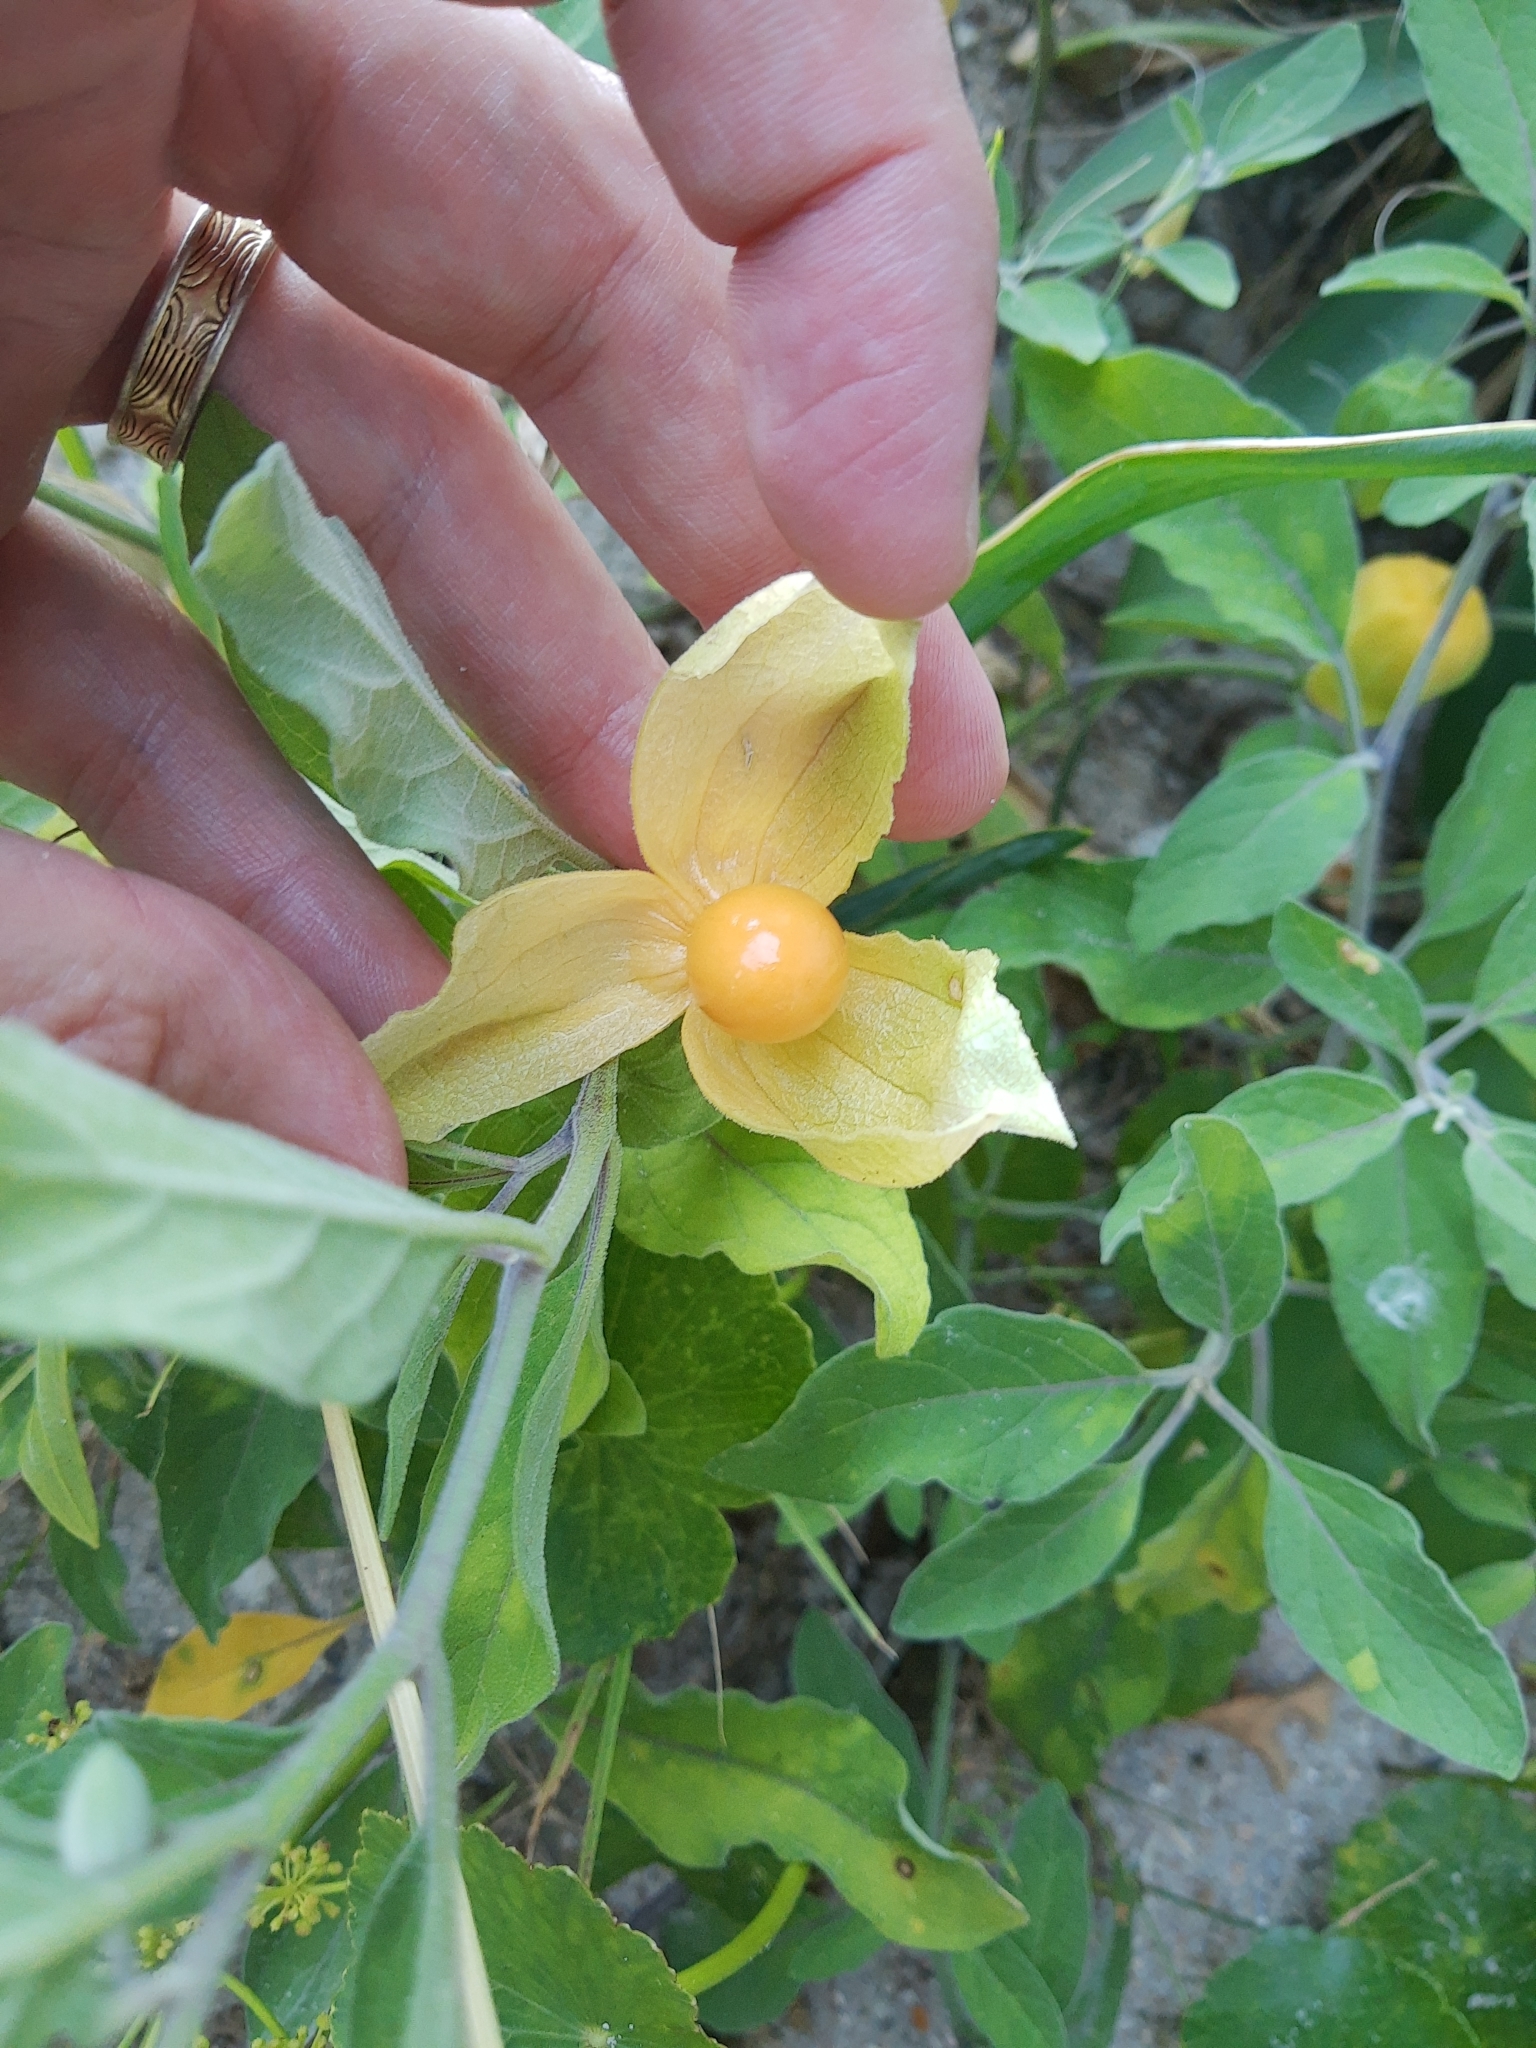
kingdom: Plantae
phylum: Tracheophyta
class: Magnoliopsida
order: Solanales
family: Solanaceae
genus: Physalis
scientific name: Physalis walteri
